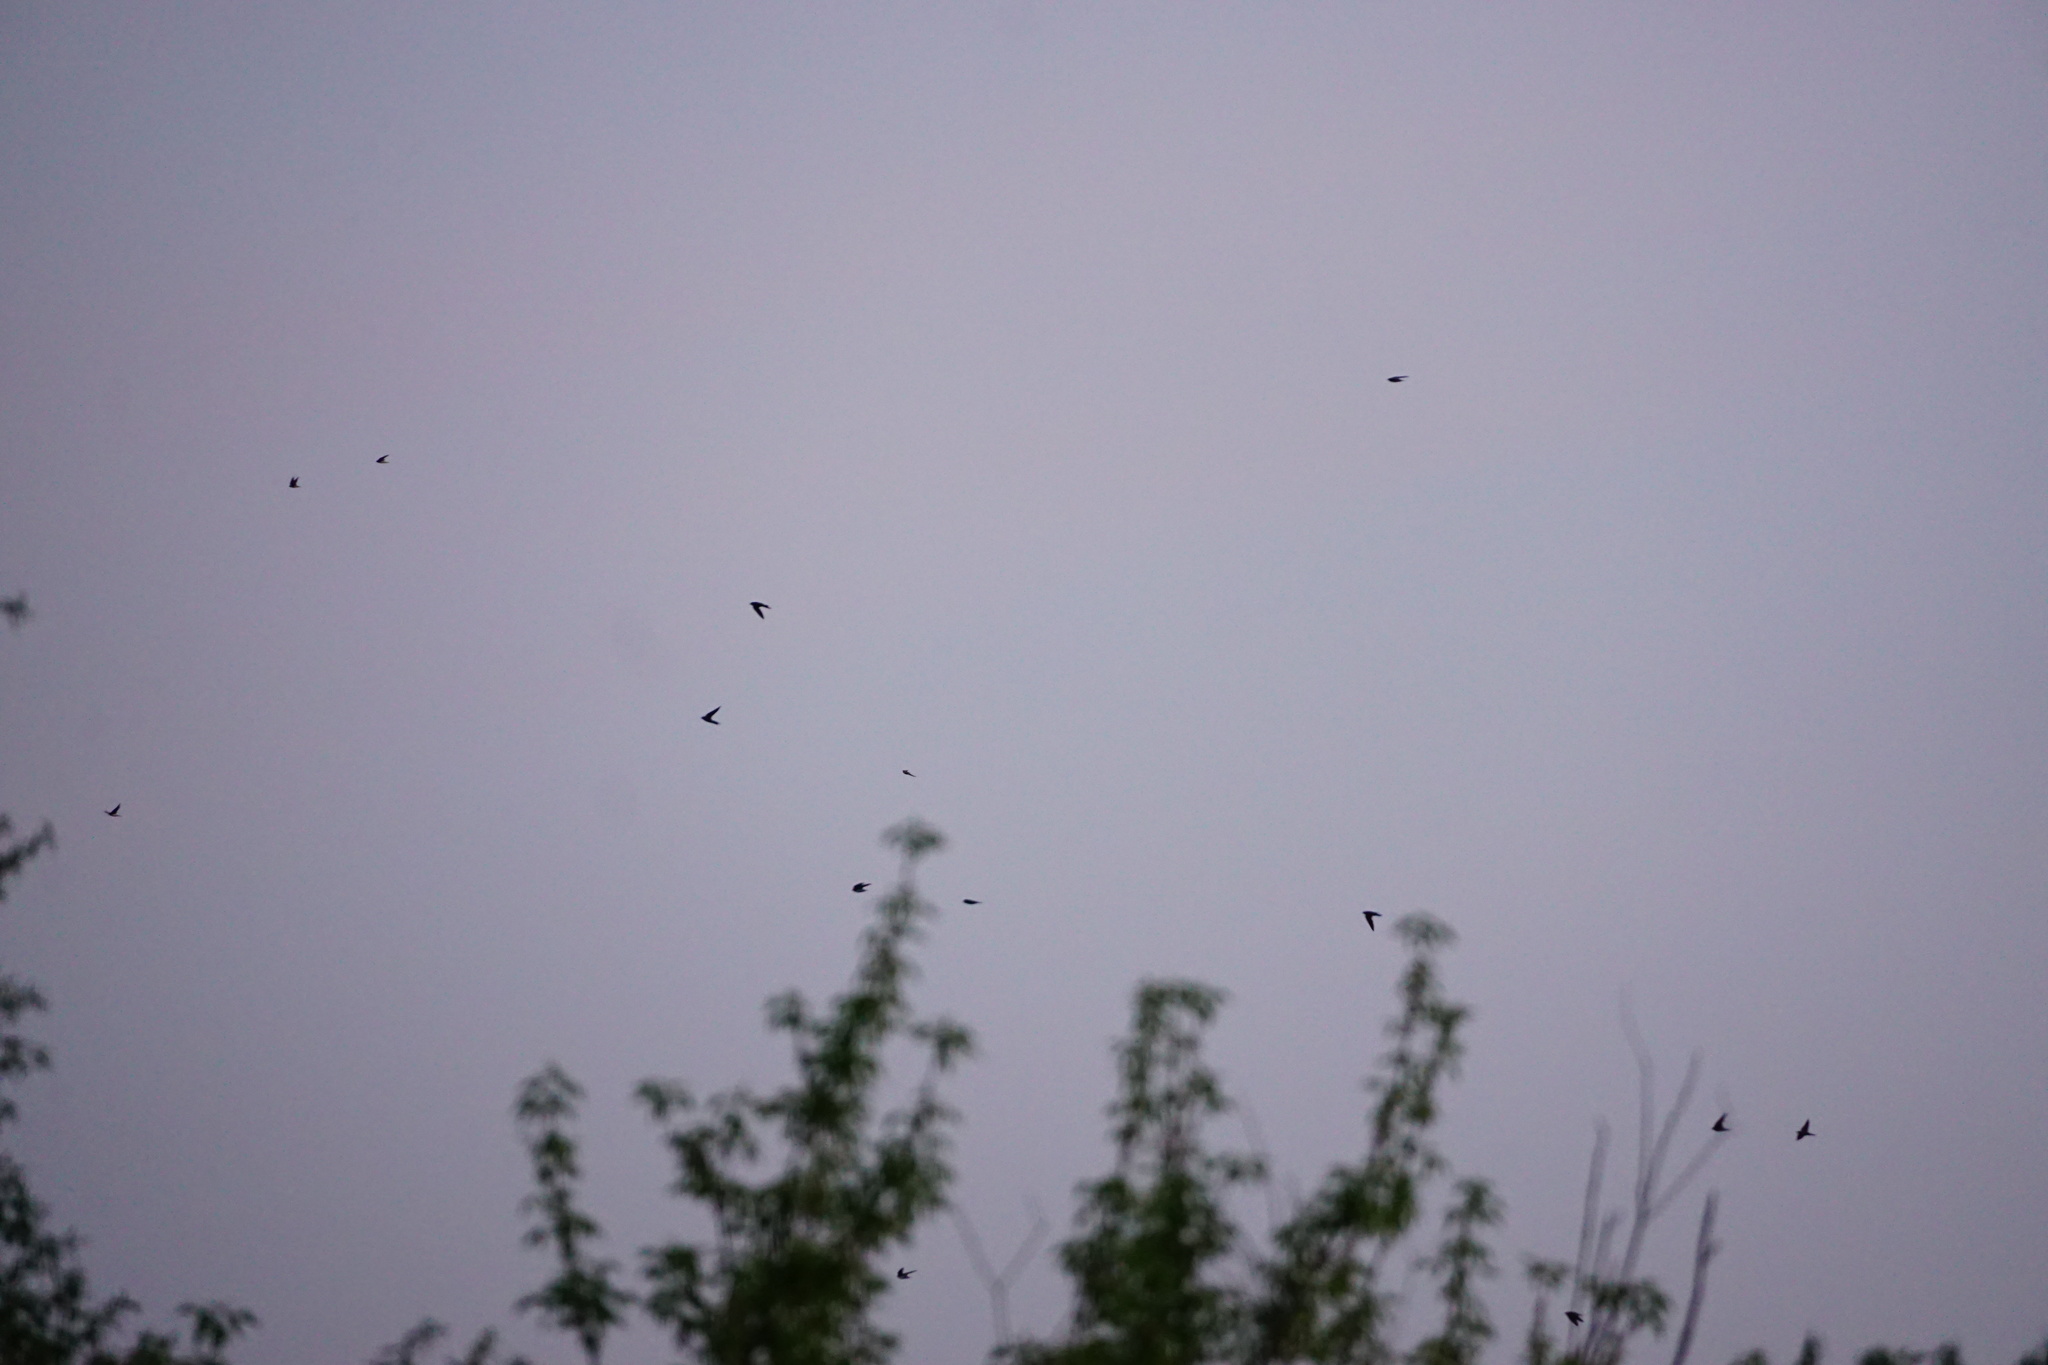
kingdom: Animalia
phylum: Chordata
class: Aves
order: Passeriformes
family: Hirundinidae
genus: Delichon
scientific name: Delichon urbicum
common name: Common house martin
